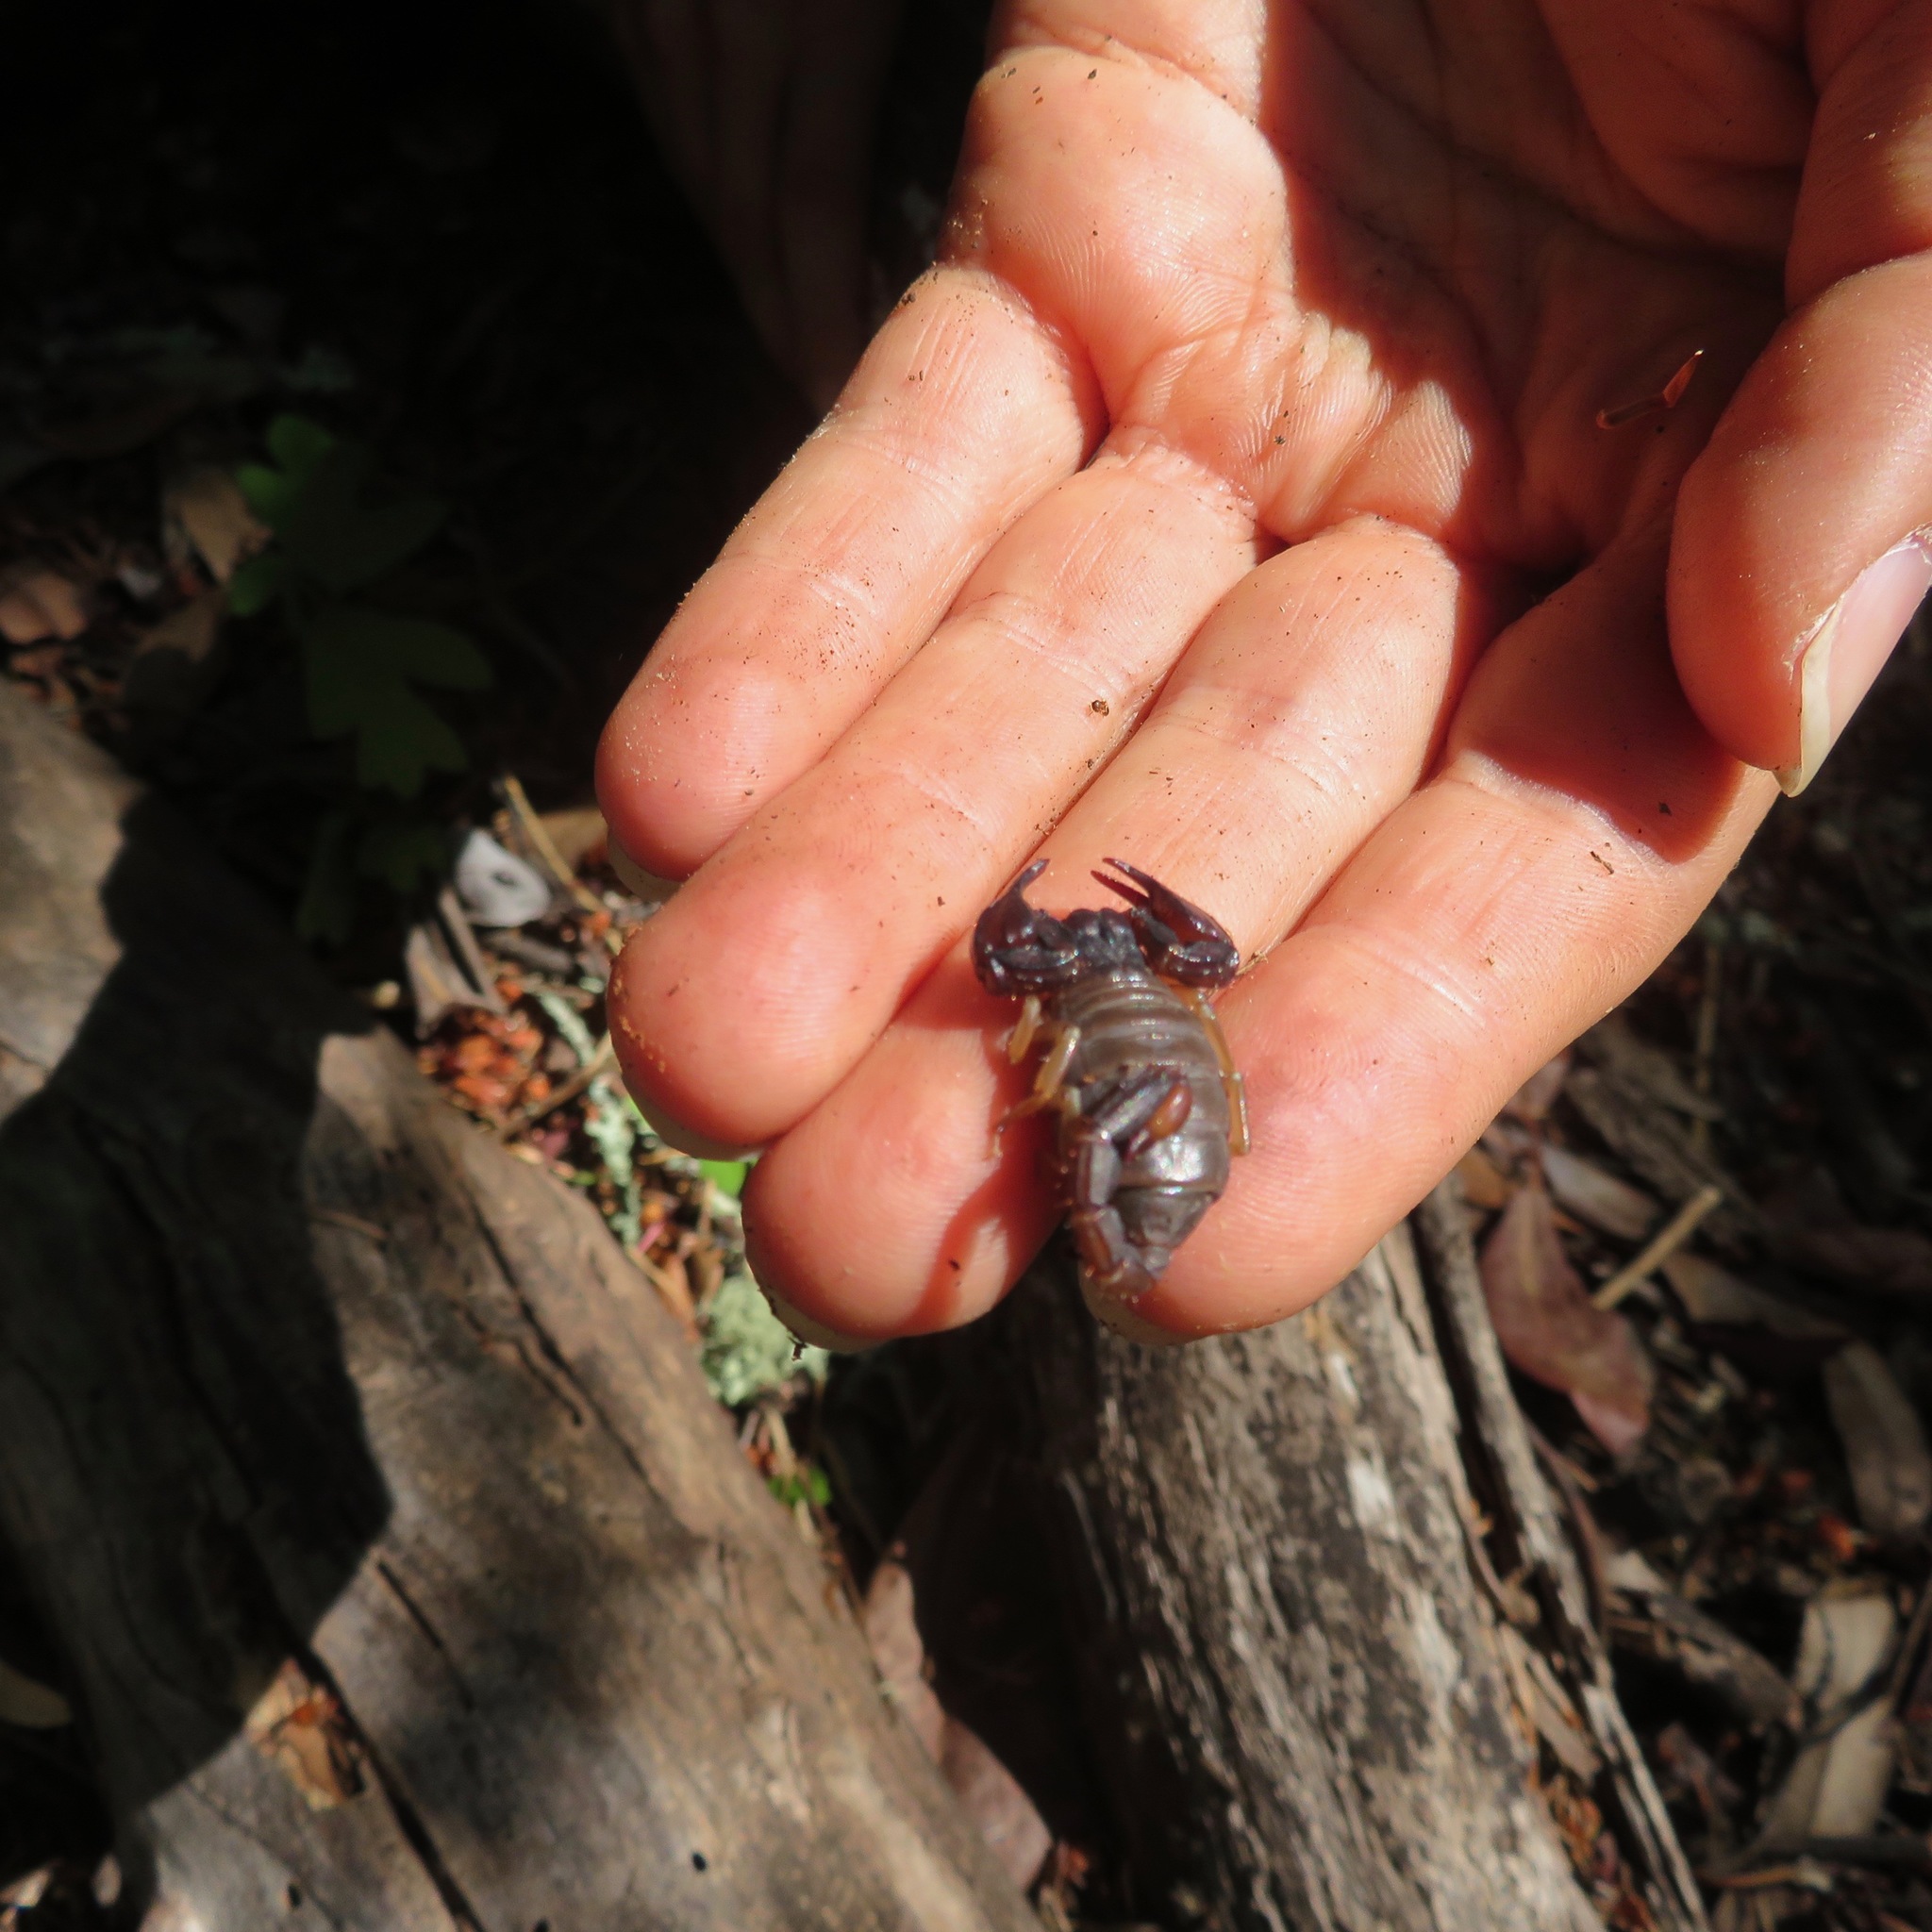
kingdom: Animalia
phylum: Arthropoda
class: Arachnida
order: Scorpiones
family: Chactidae
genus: Uroctonus
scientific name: Uroctonus mordax
